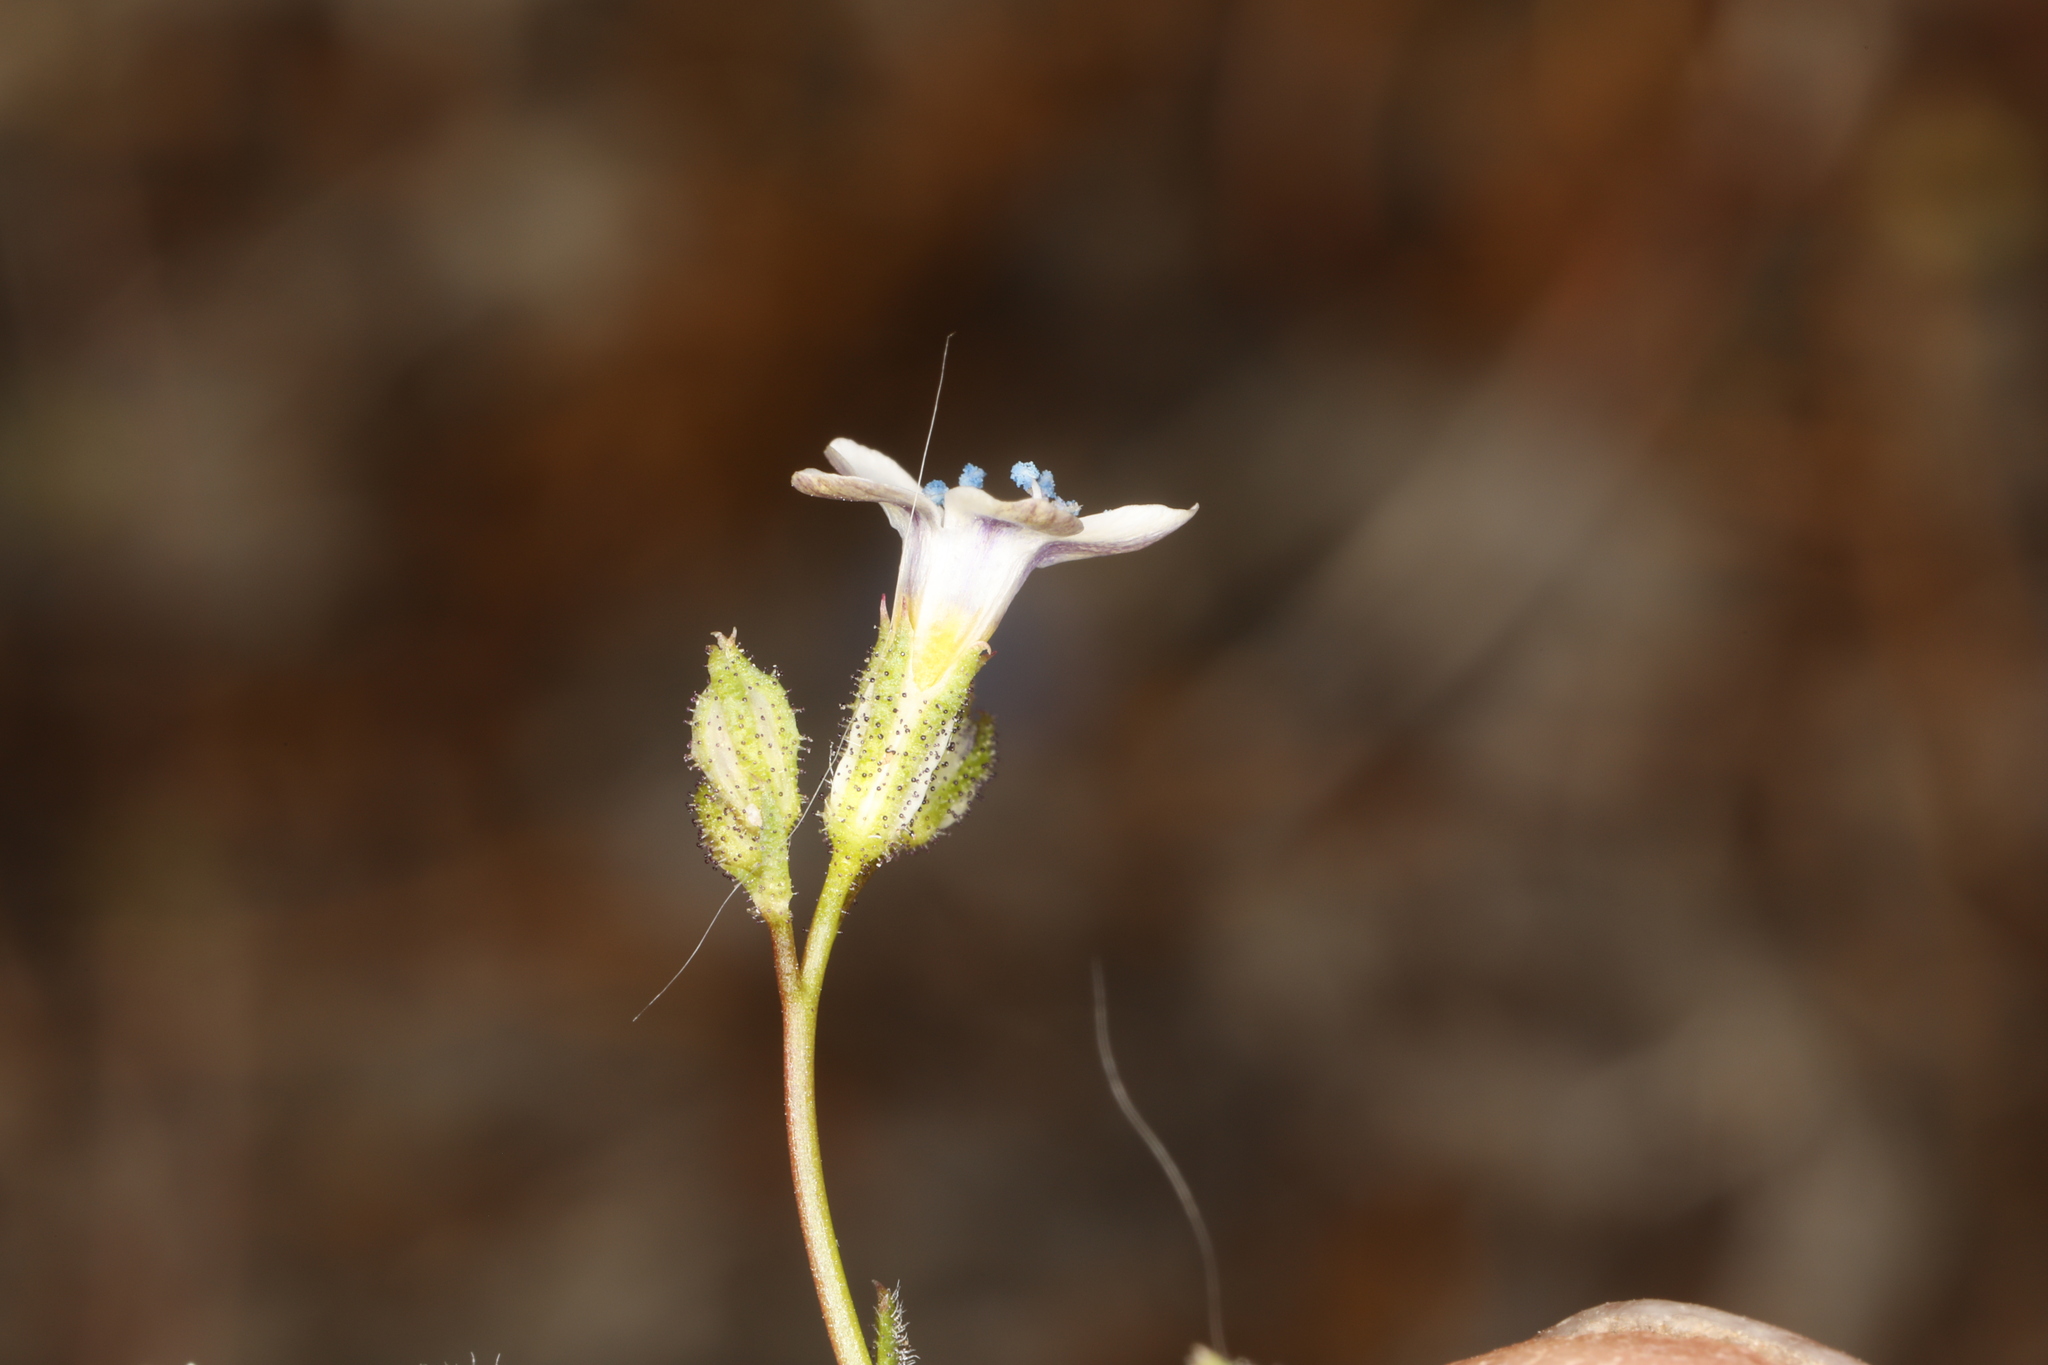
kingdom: Plantae
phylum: Tracheophyta
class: Magnoliopsida
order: Ericales
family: Polemoniaceae
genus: Gilia
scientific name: Gilia stellata
